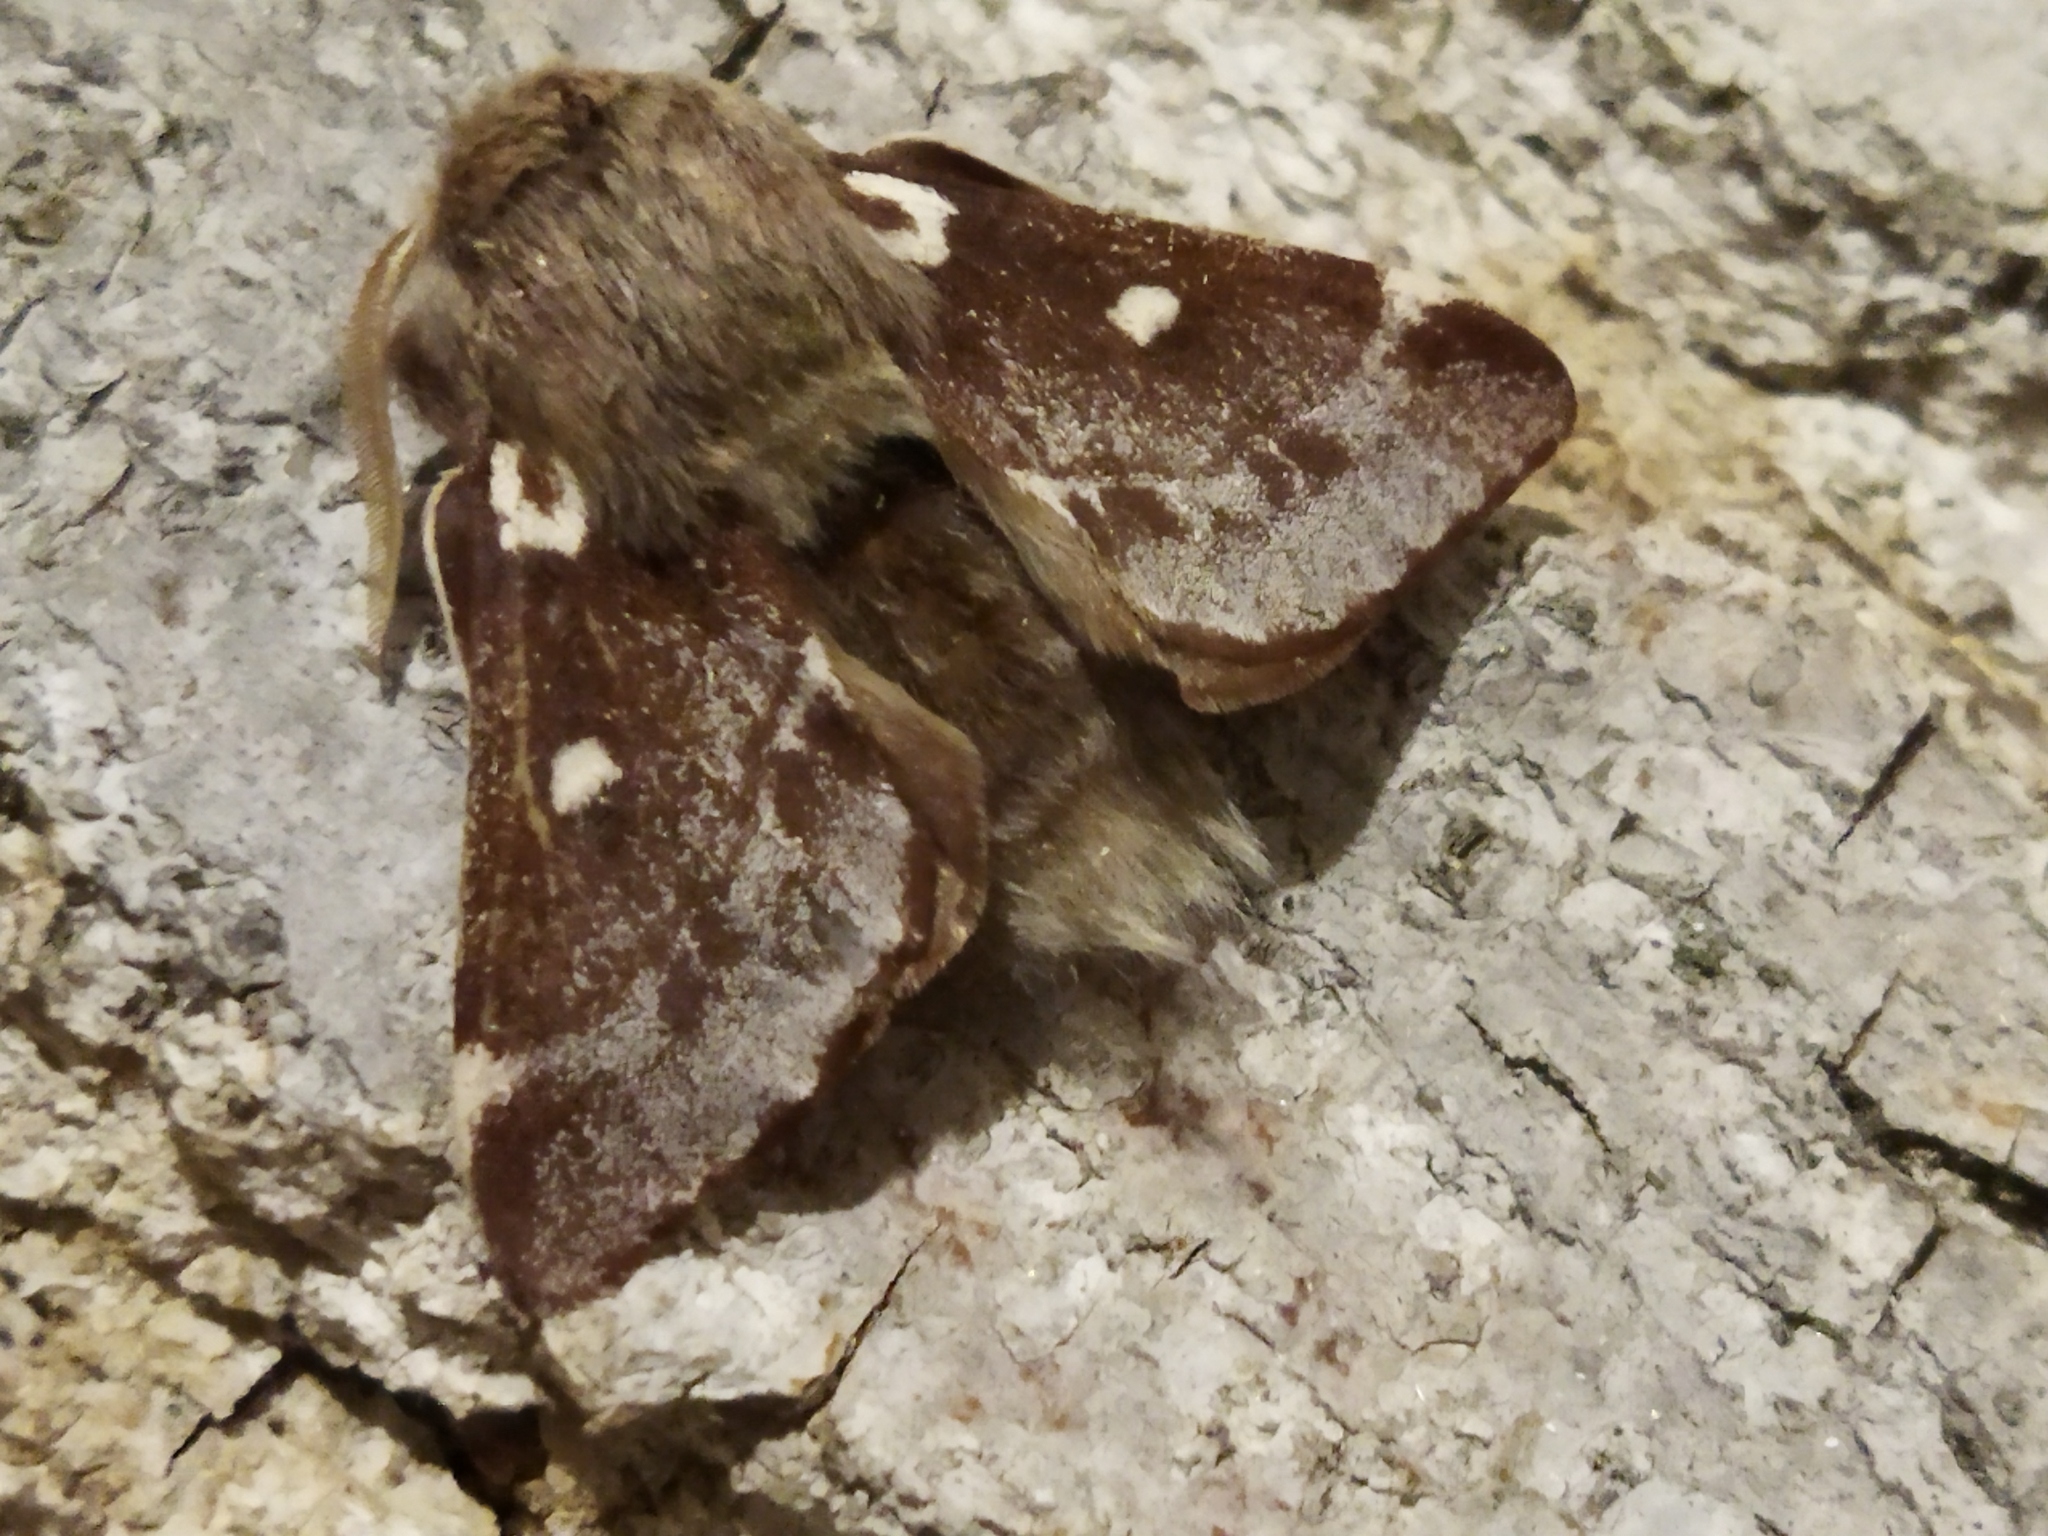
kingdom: Animalia
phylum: Arthropoda
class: Insecta
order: Lepidoptera
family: Lasiocampidae
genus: Eriogaster
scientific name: Eriogaster lanestris
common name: Small eggar
